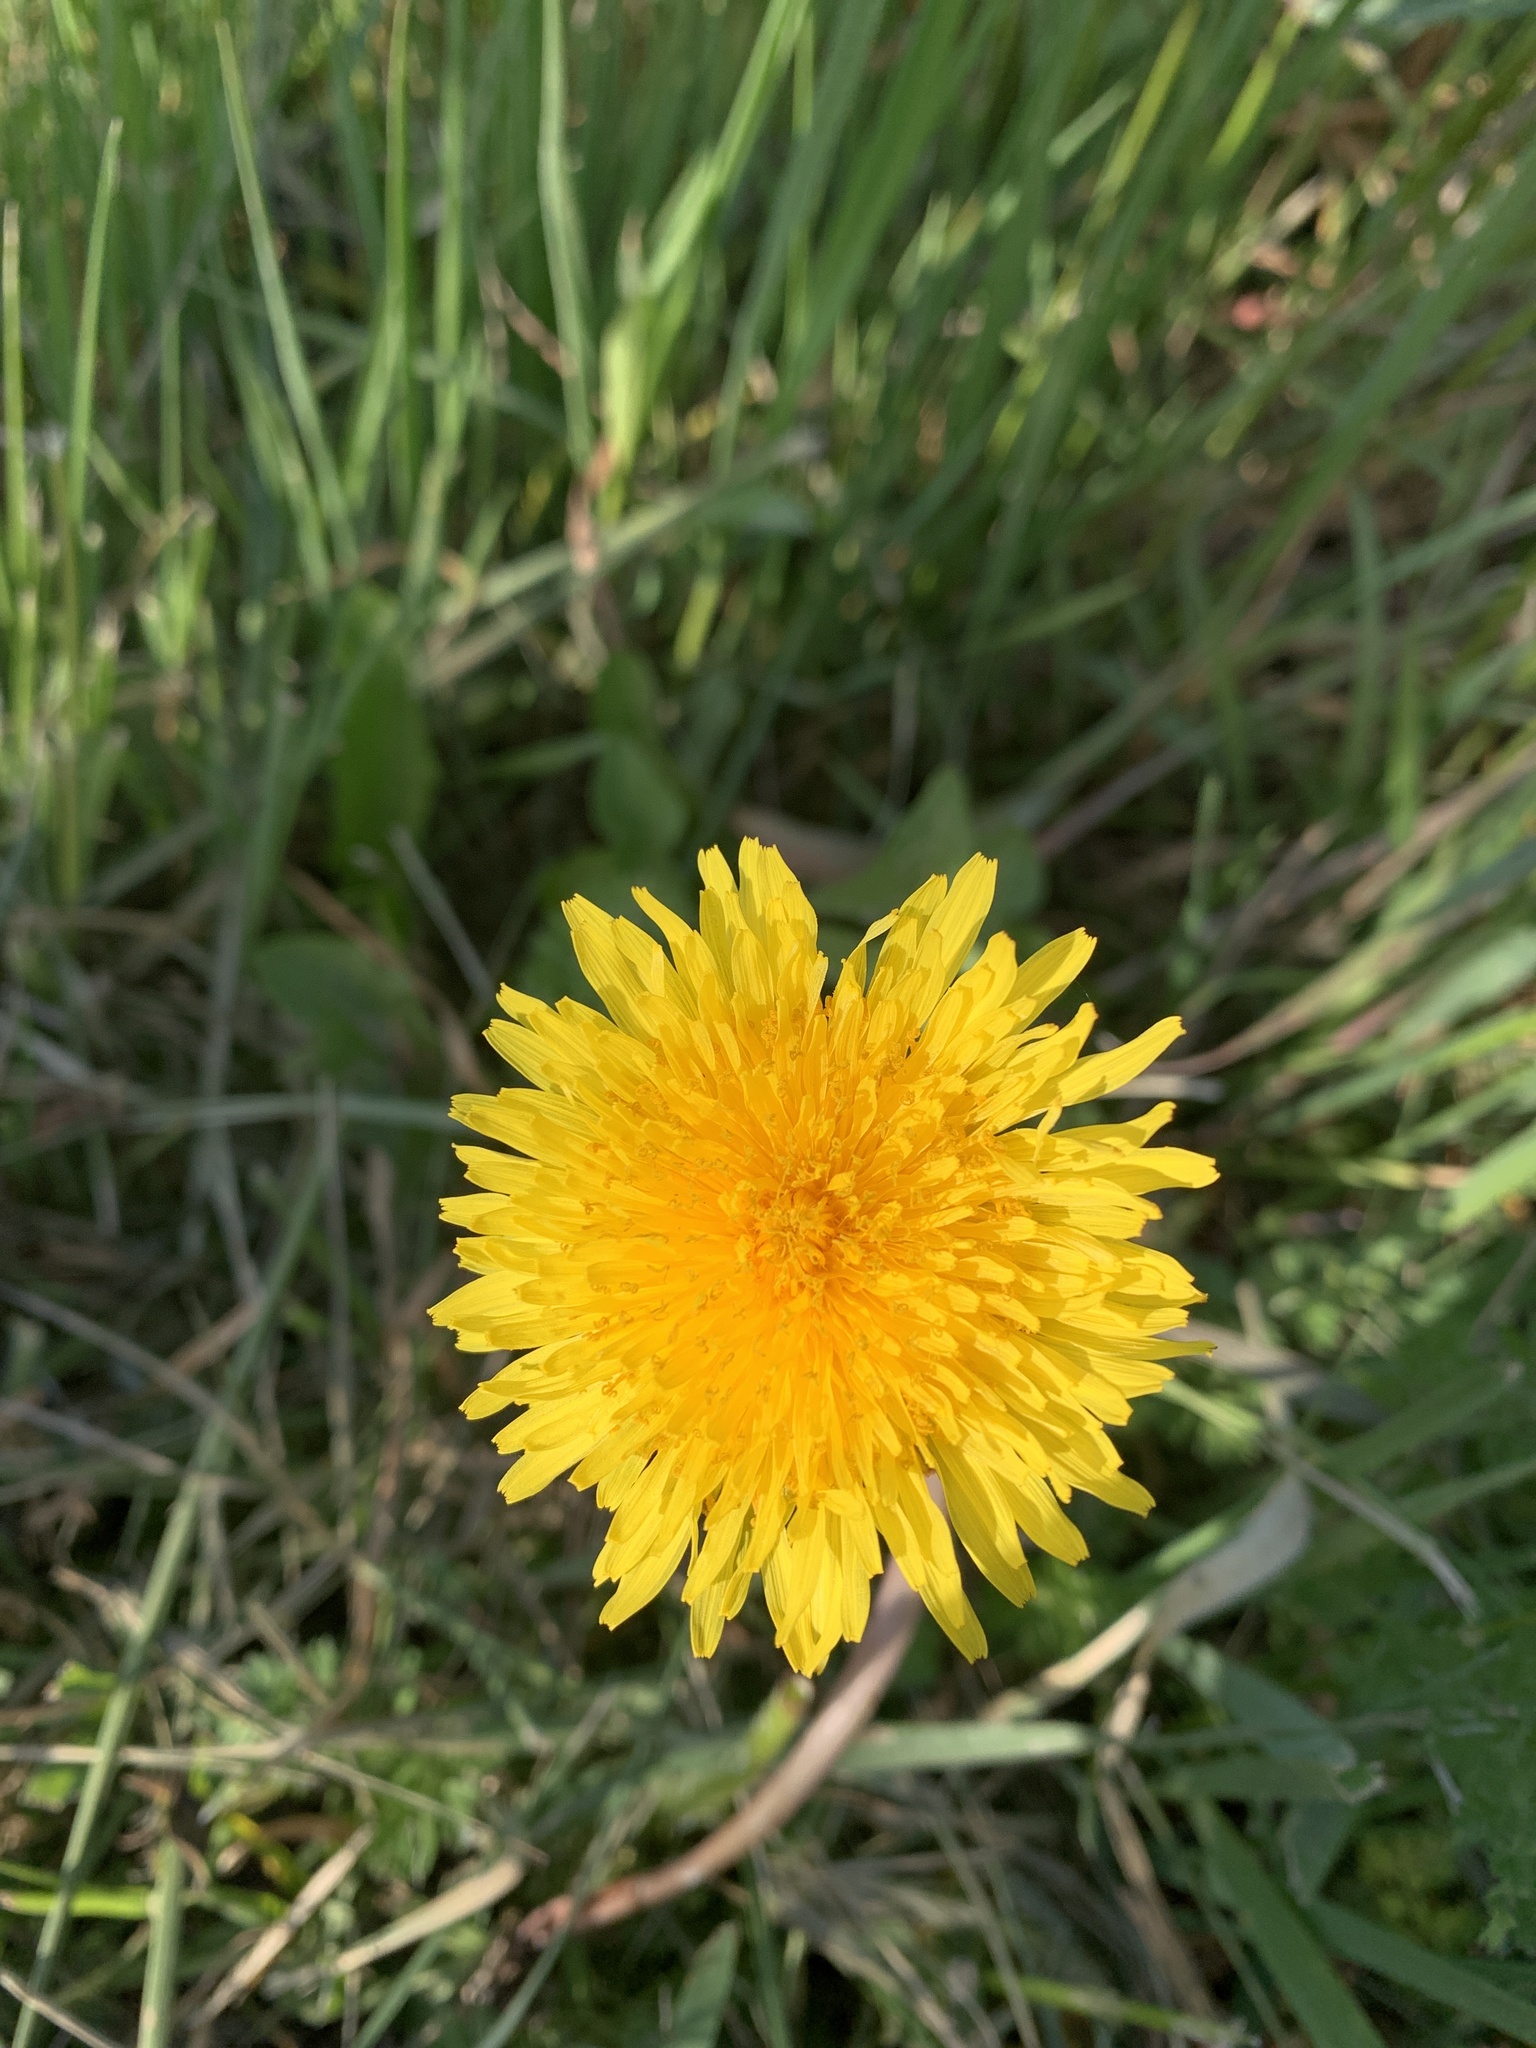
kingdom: Plantae
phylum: Tracheophyta
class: Magnoliopsida
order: Asterales
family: Asteraceae
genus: Taraxacum
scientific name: Taraxacum
